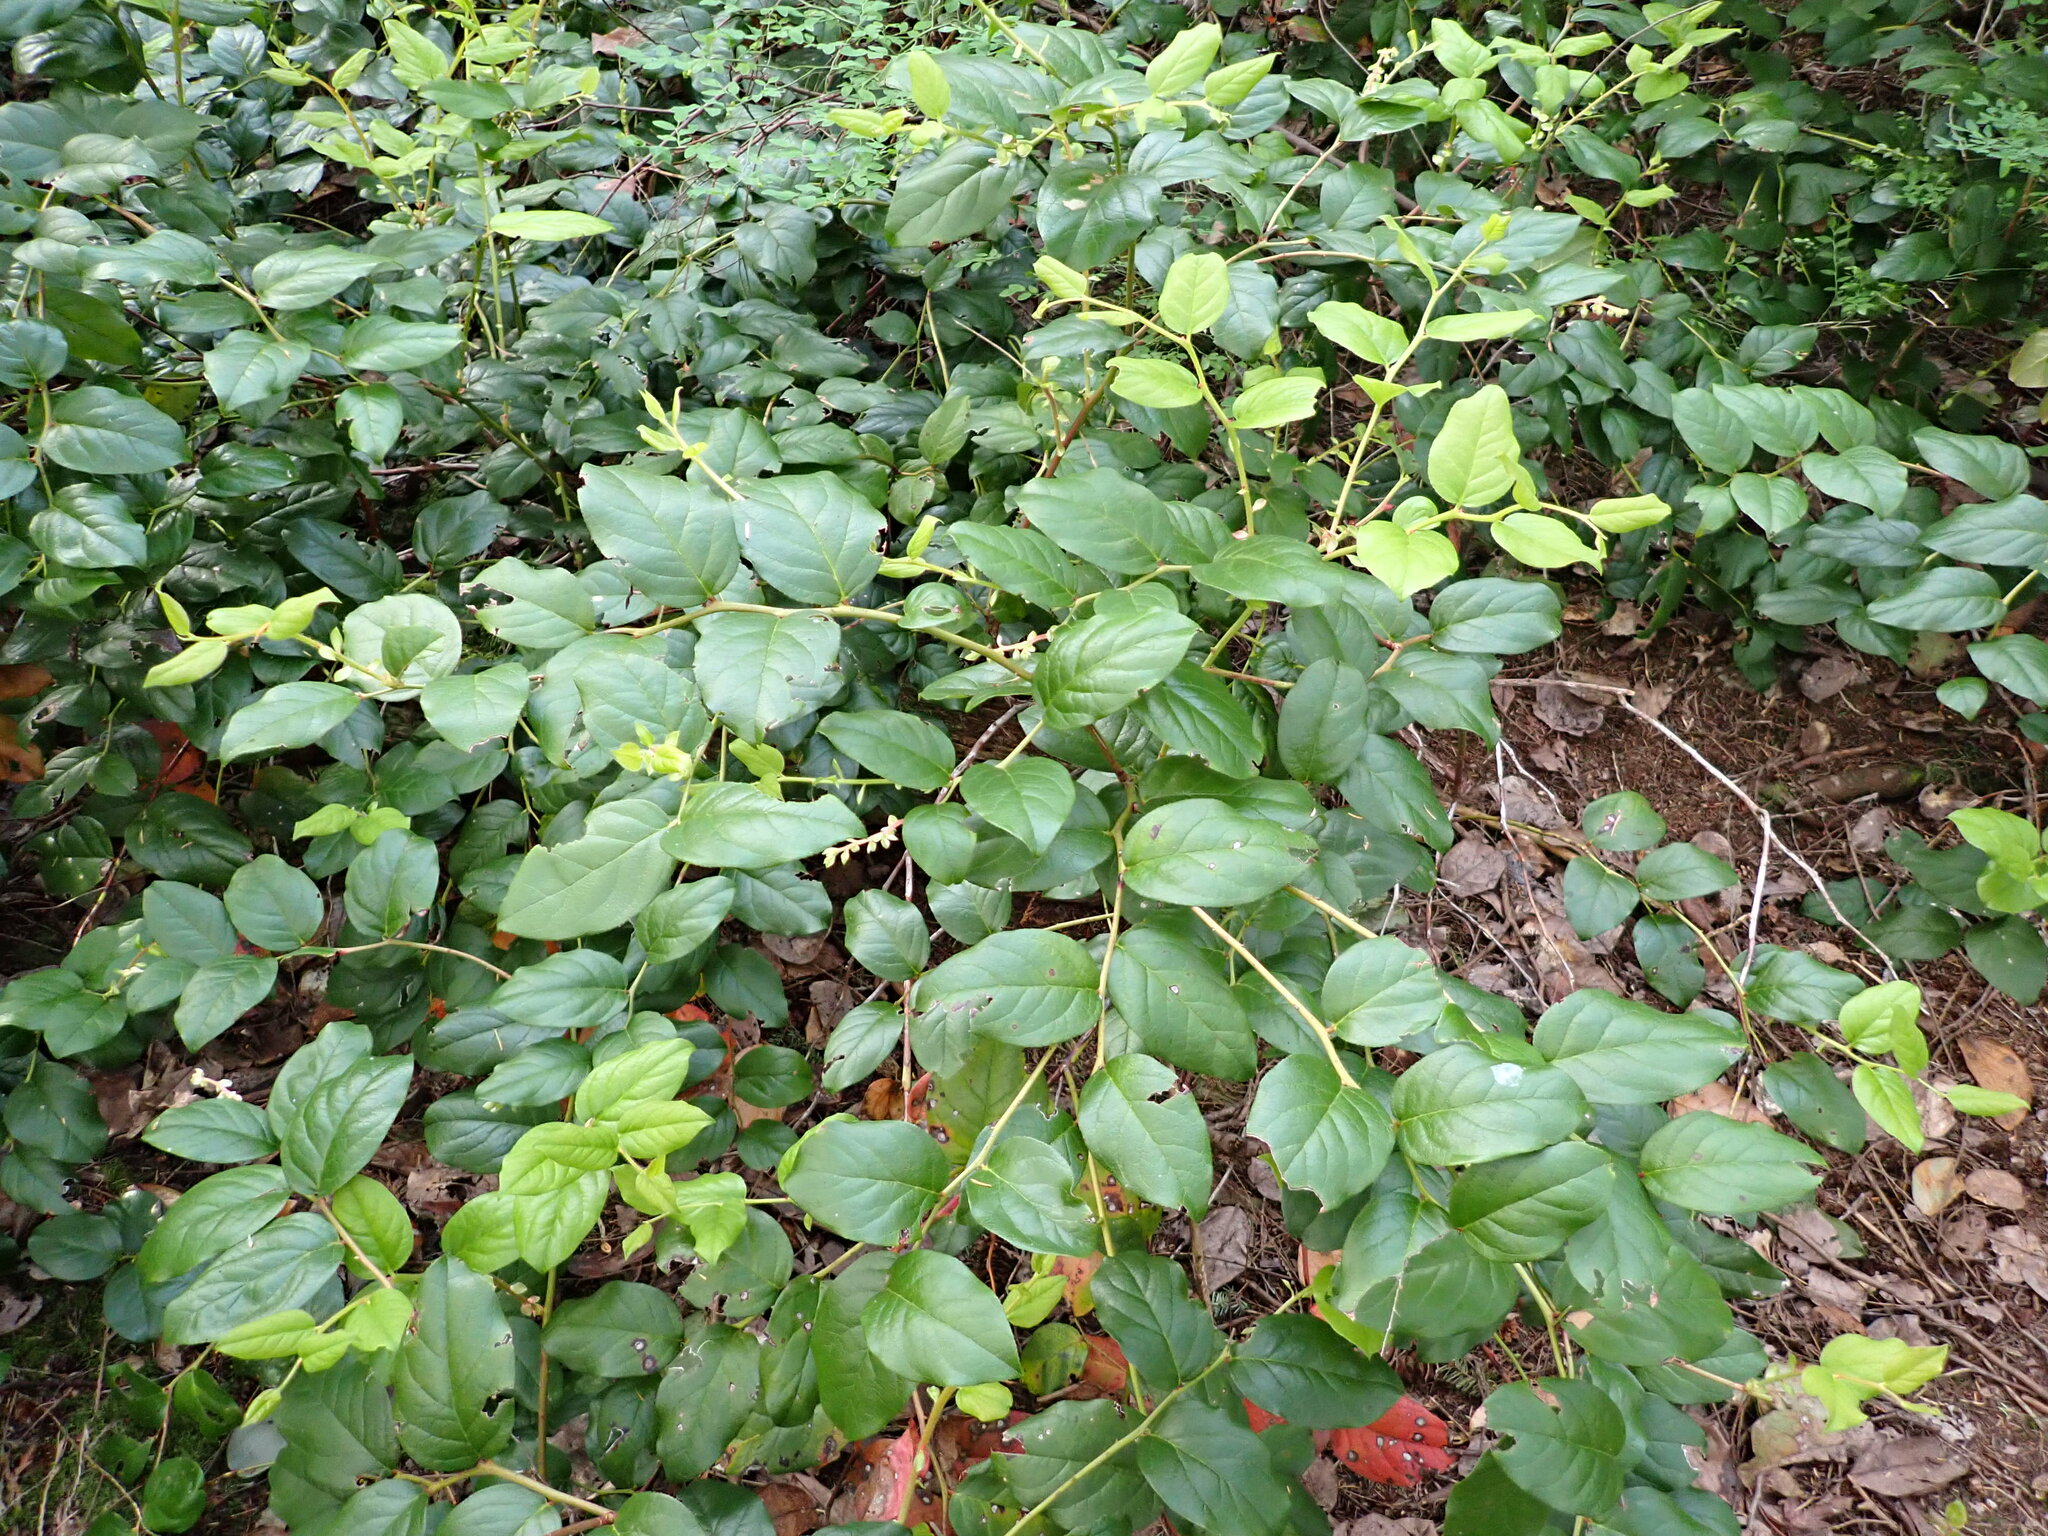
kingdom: Plantae
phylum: Tracheophyta
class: Magnoliopsida
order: Ericales
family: Ericaceae
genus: Gaultheria
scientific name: Gaultheria shallon
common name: Shallon
